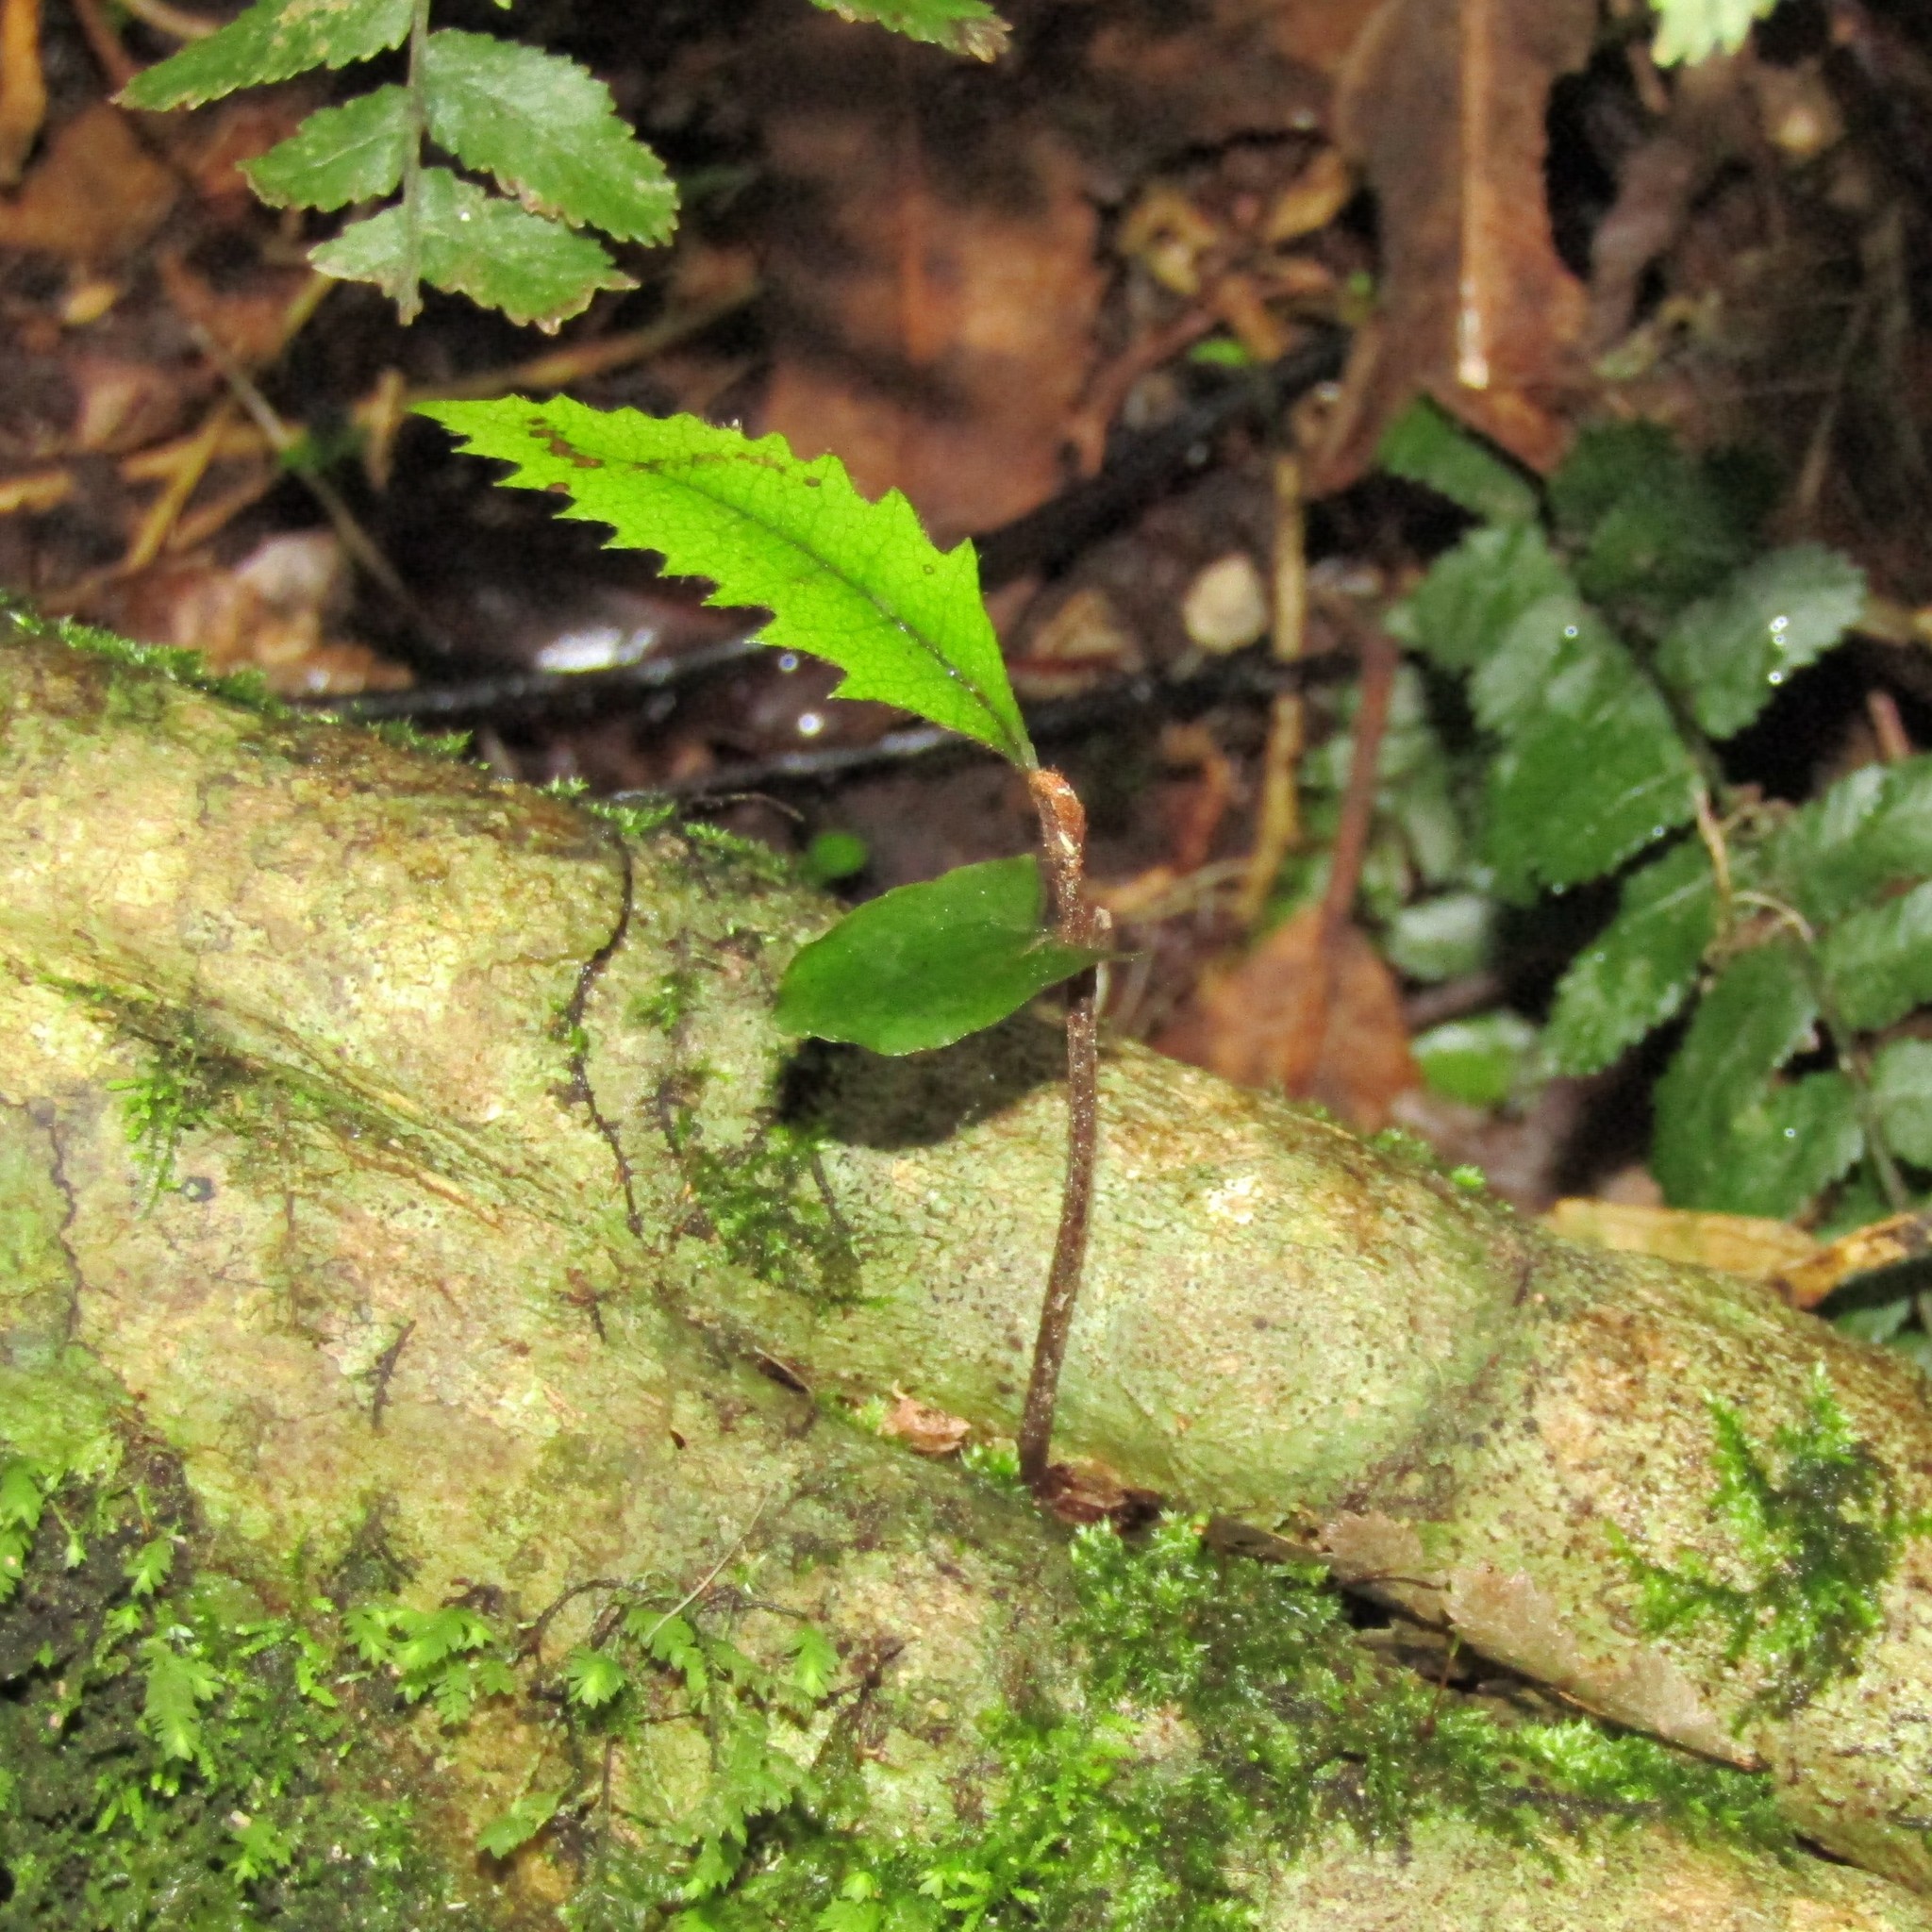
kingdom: Plantae
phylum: Tracheophyta
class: Magnoliopsida
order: Oxalidales
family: Cunoniaceae
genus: Pterophylla
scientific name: Pterophylla racemosa
